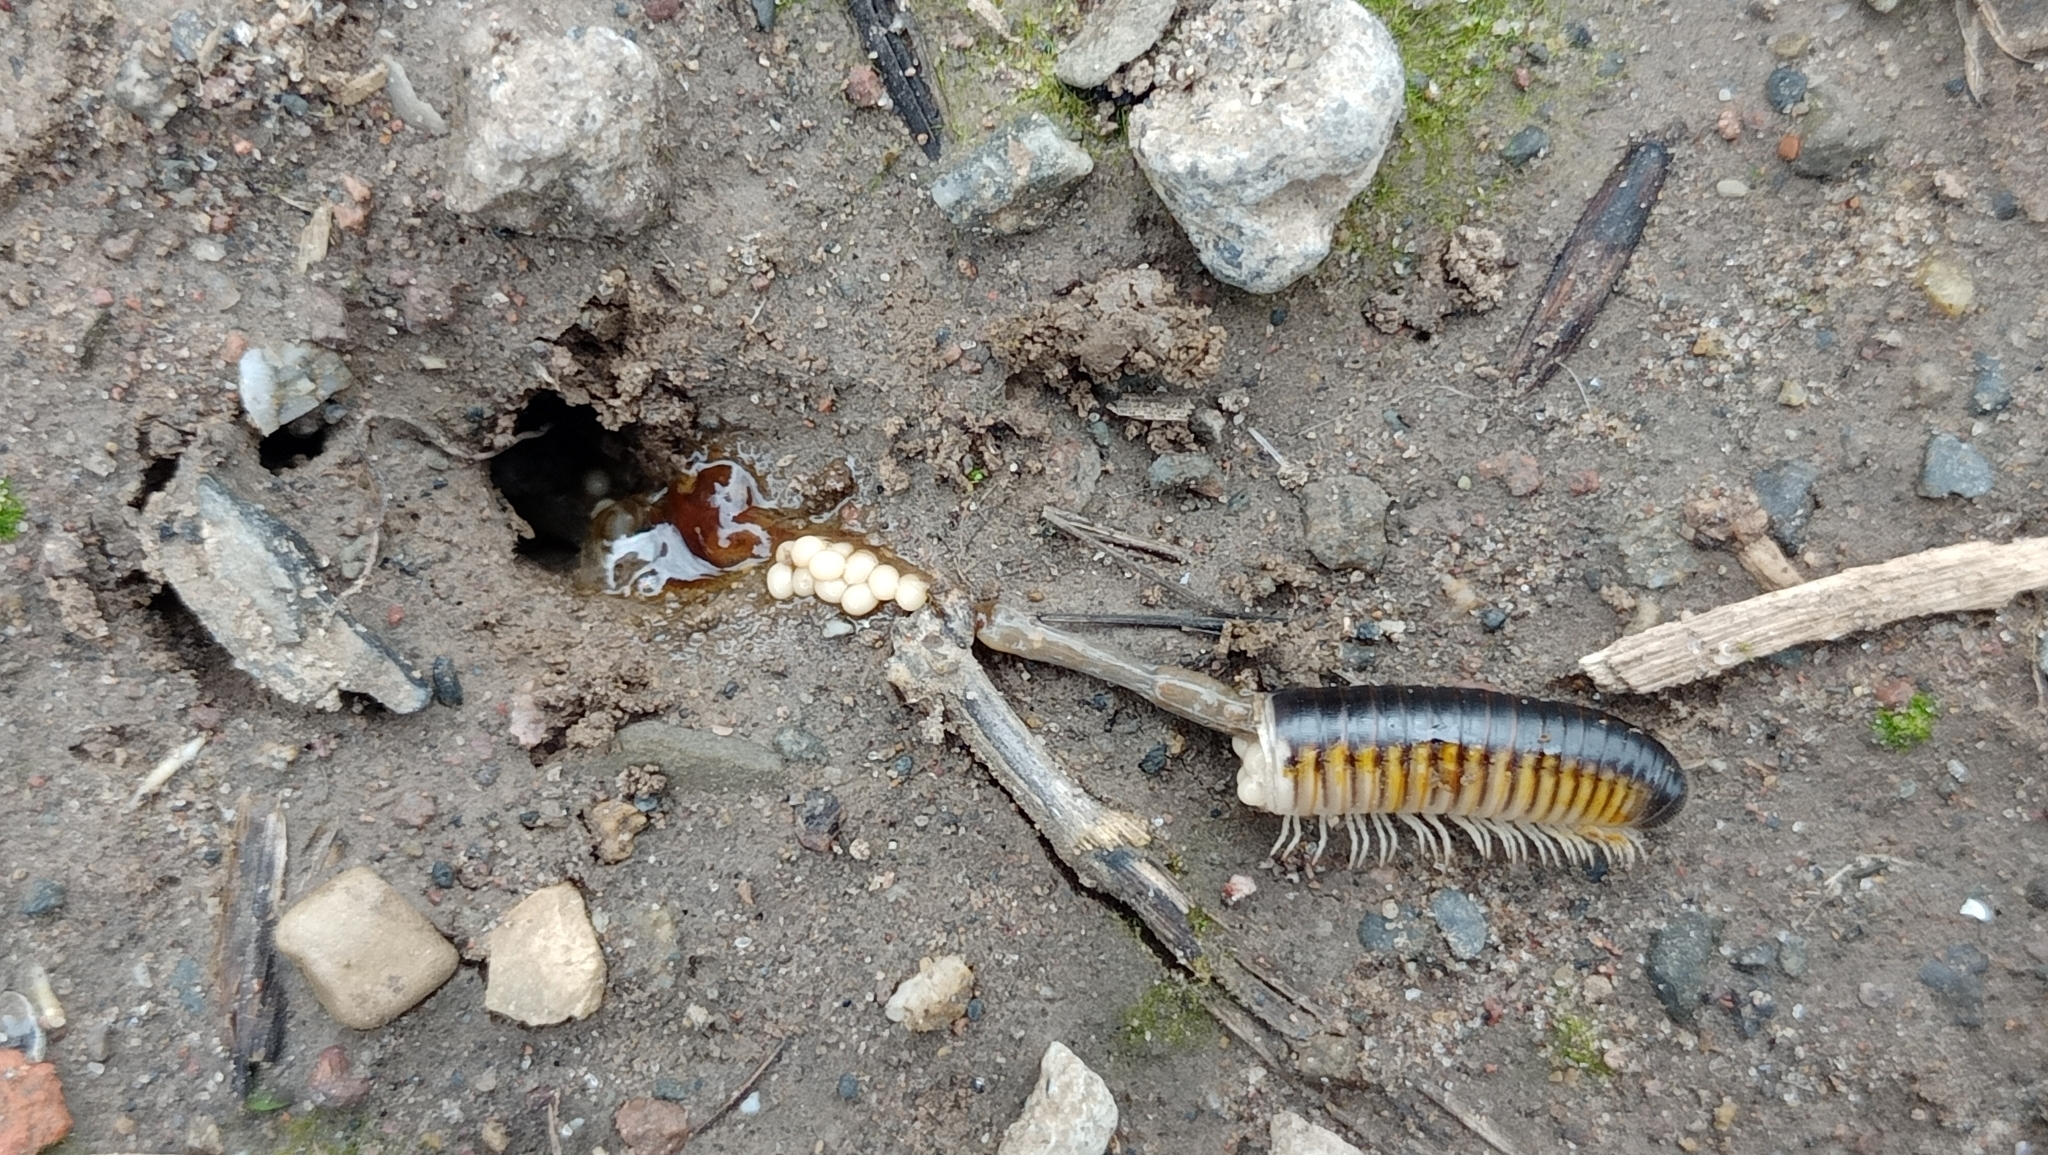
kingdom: Animalia
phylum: Arthropoda
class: Diplopoda
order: Julida
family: Julidae
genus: Pachyiulus
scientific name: Pachyiulus flavipes
